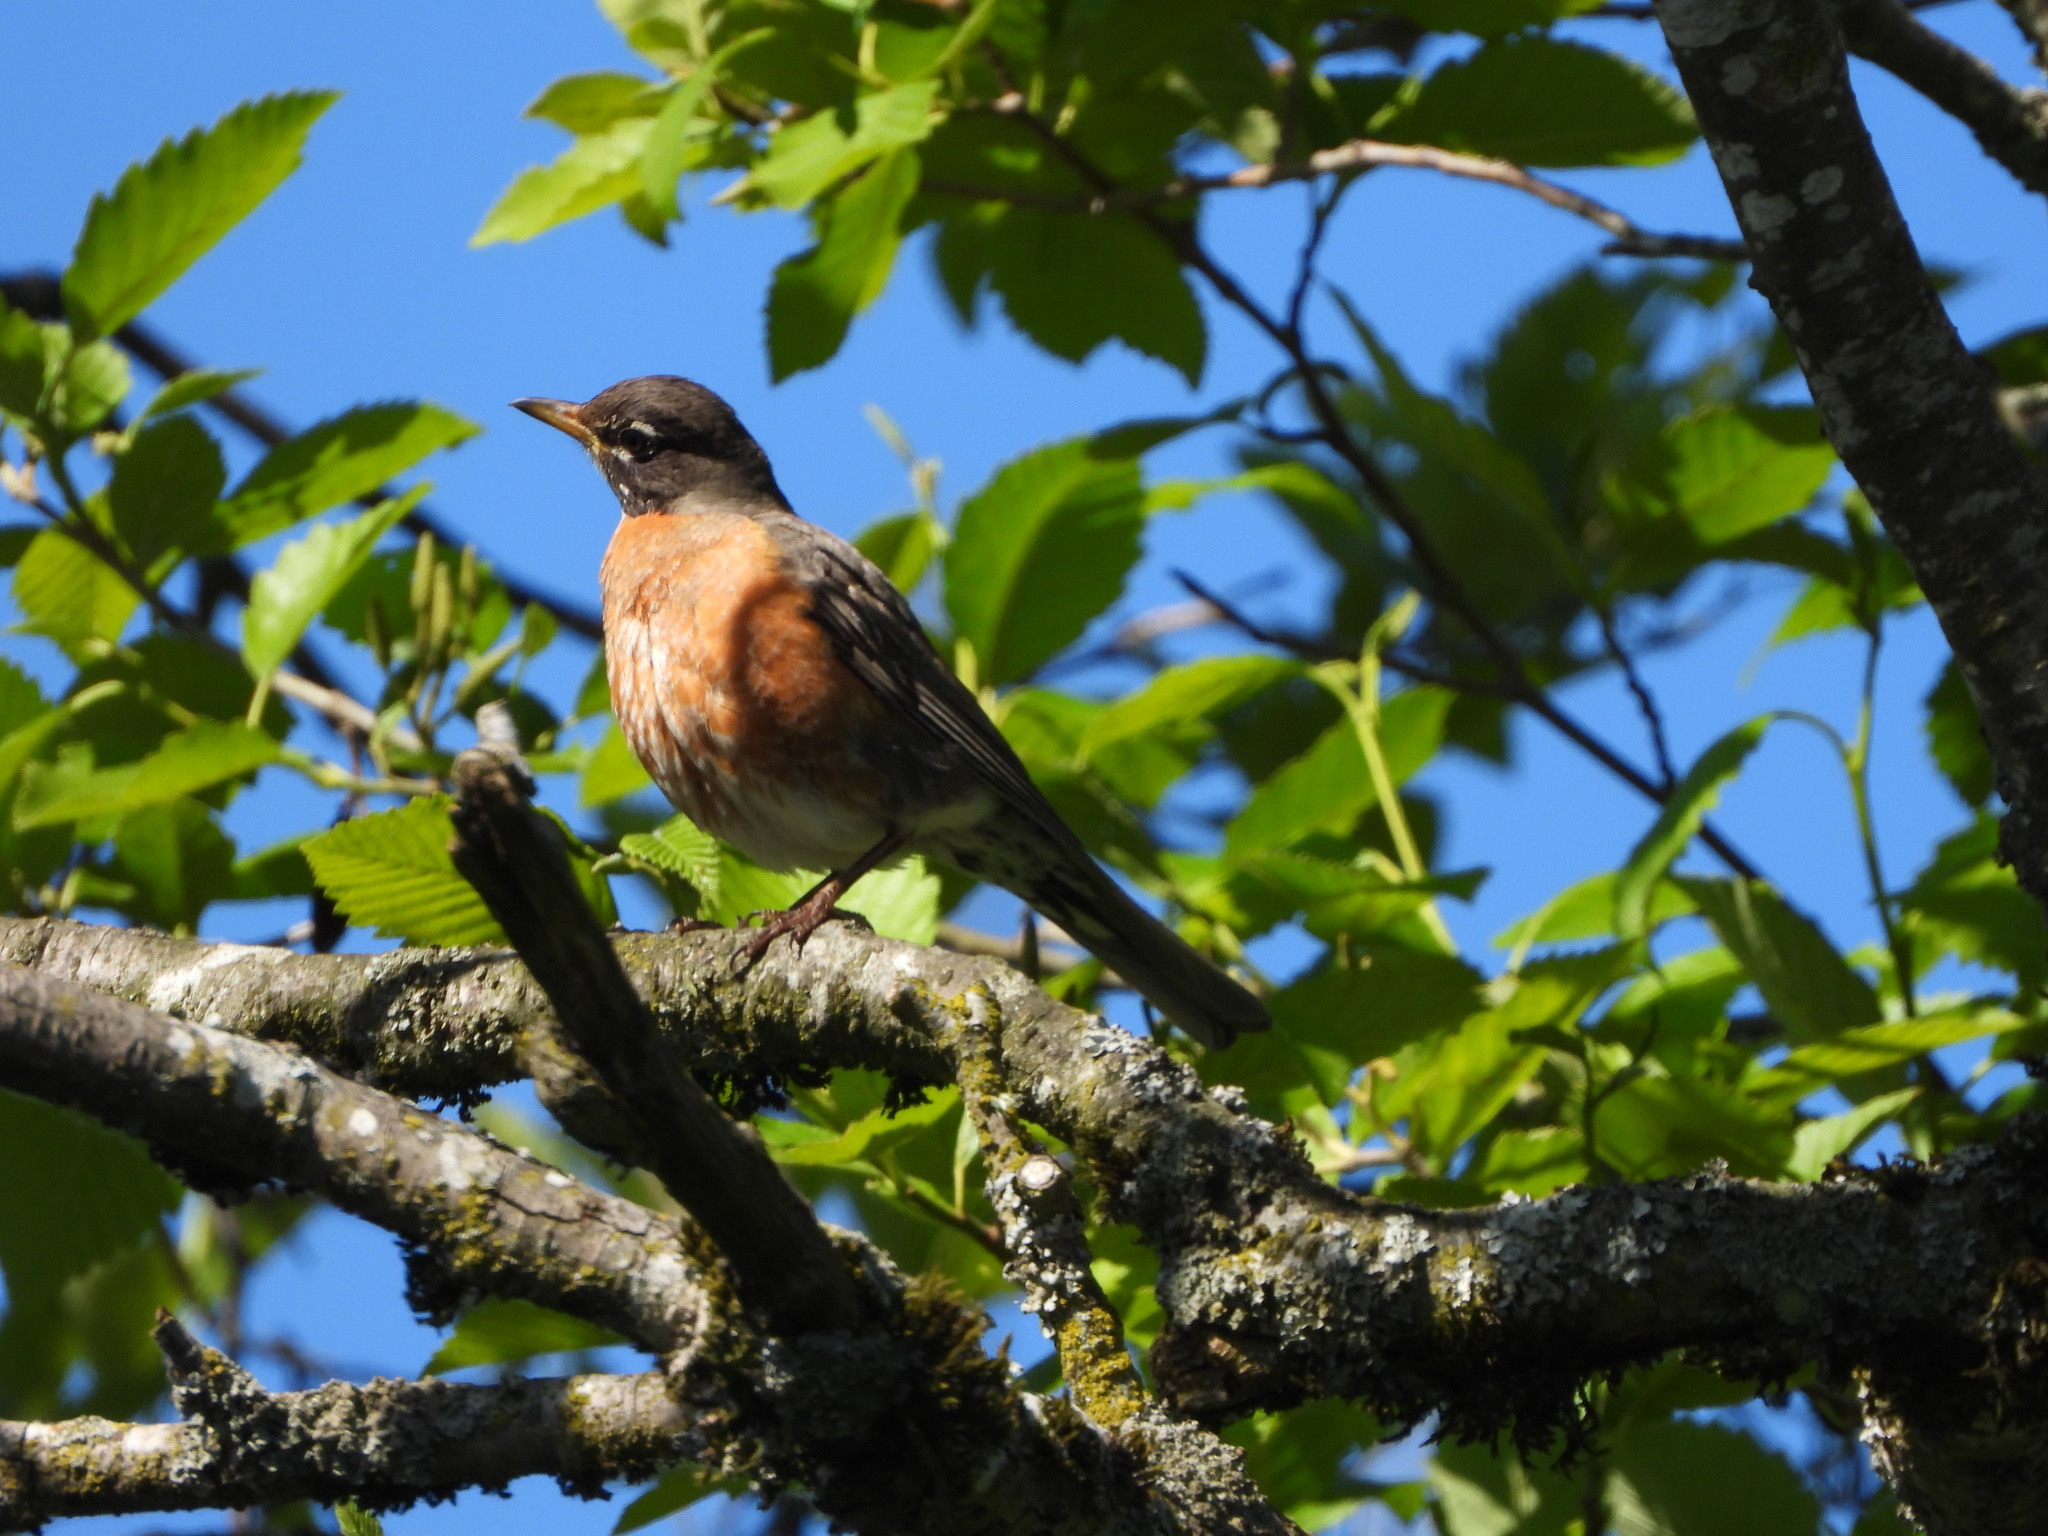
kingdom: Animalia
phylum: Chordata
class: Aves
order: Passeriformes
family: Turdidae
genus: Turdus
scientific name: Turdus migratorius
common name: American robin
